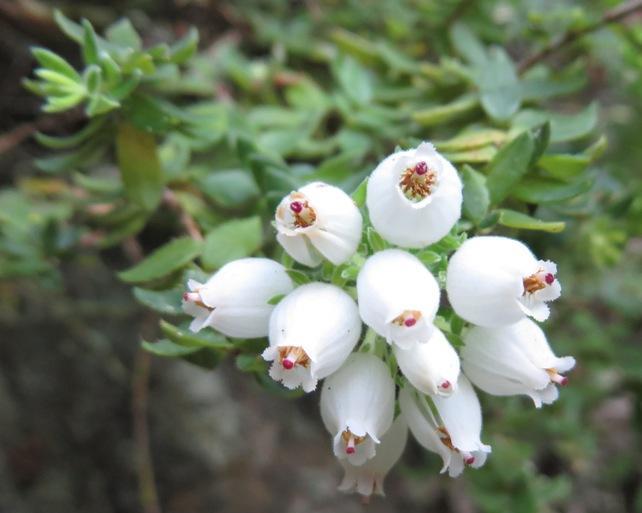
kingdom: Plantae
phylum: Tracheophyta
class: Magnoliopsida
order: Ericales
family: Ericaceae
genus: Erica
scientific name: Erica marifolia
